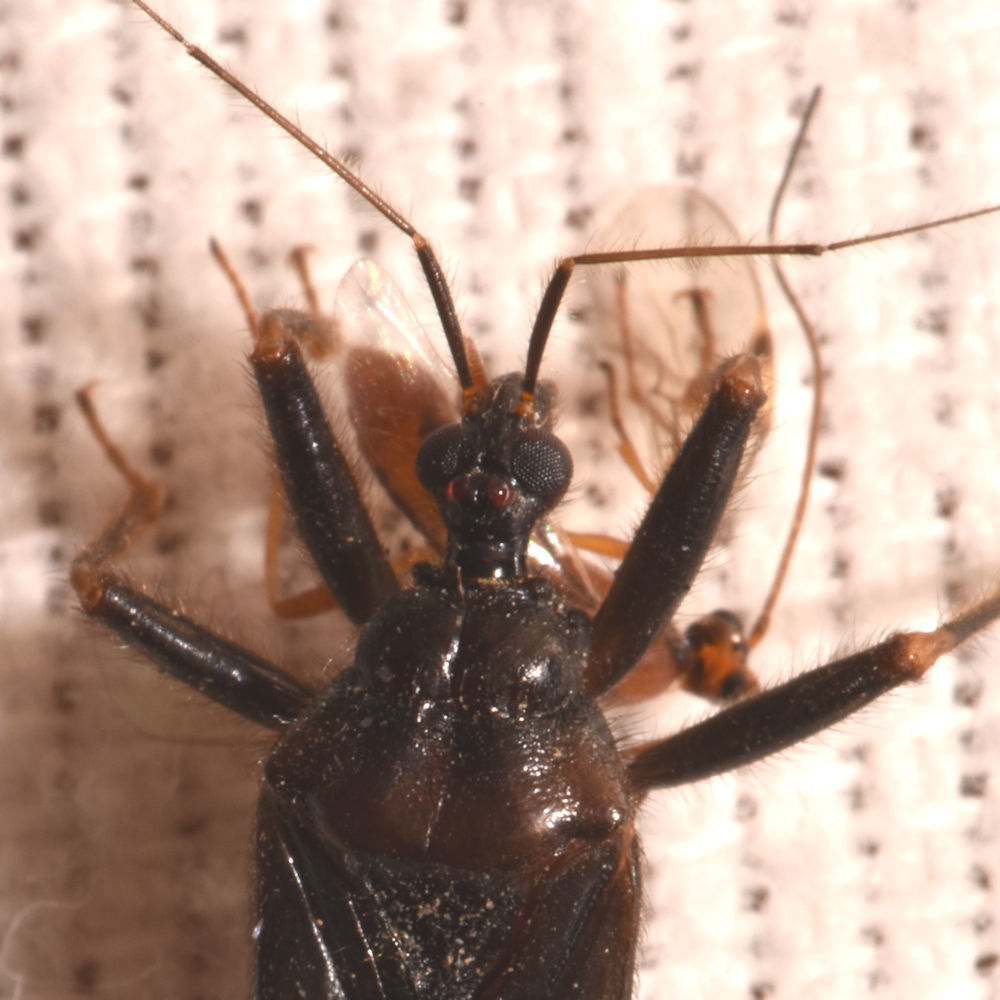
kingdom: Animalia
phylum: Arthropoda
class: Insecta
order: Hemiptera
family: Reduviidae
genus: Reduvius
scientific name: Reduvius personatus
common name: Masked hunter
